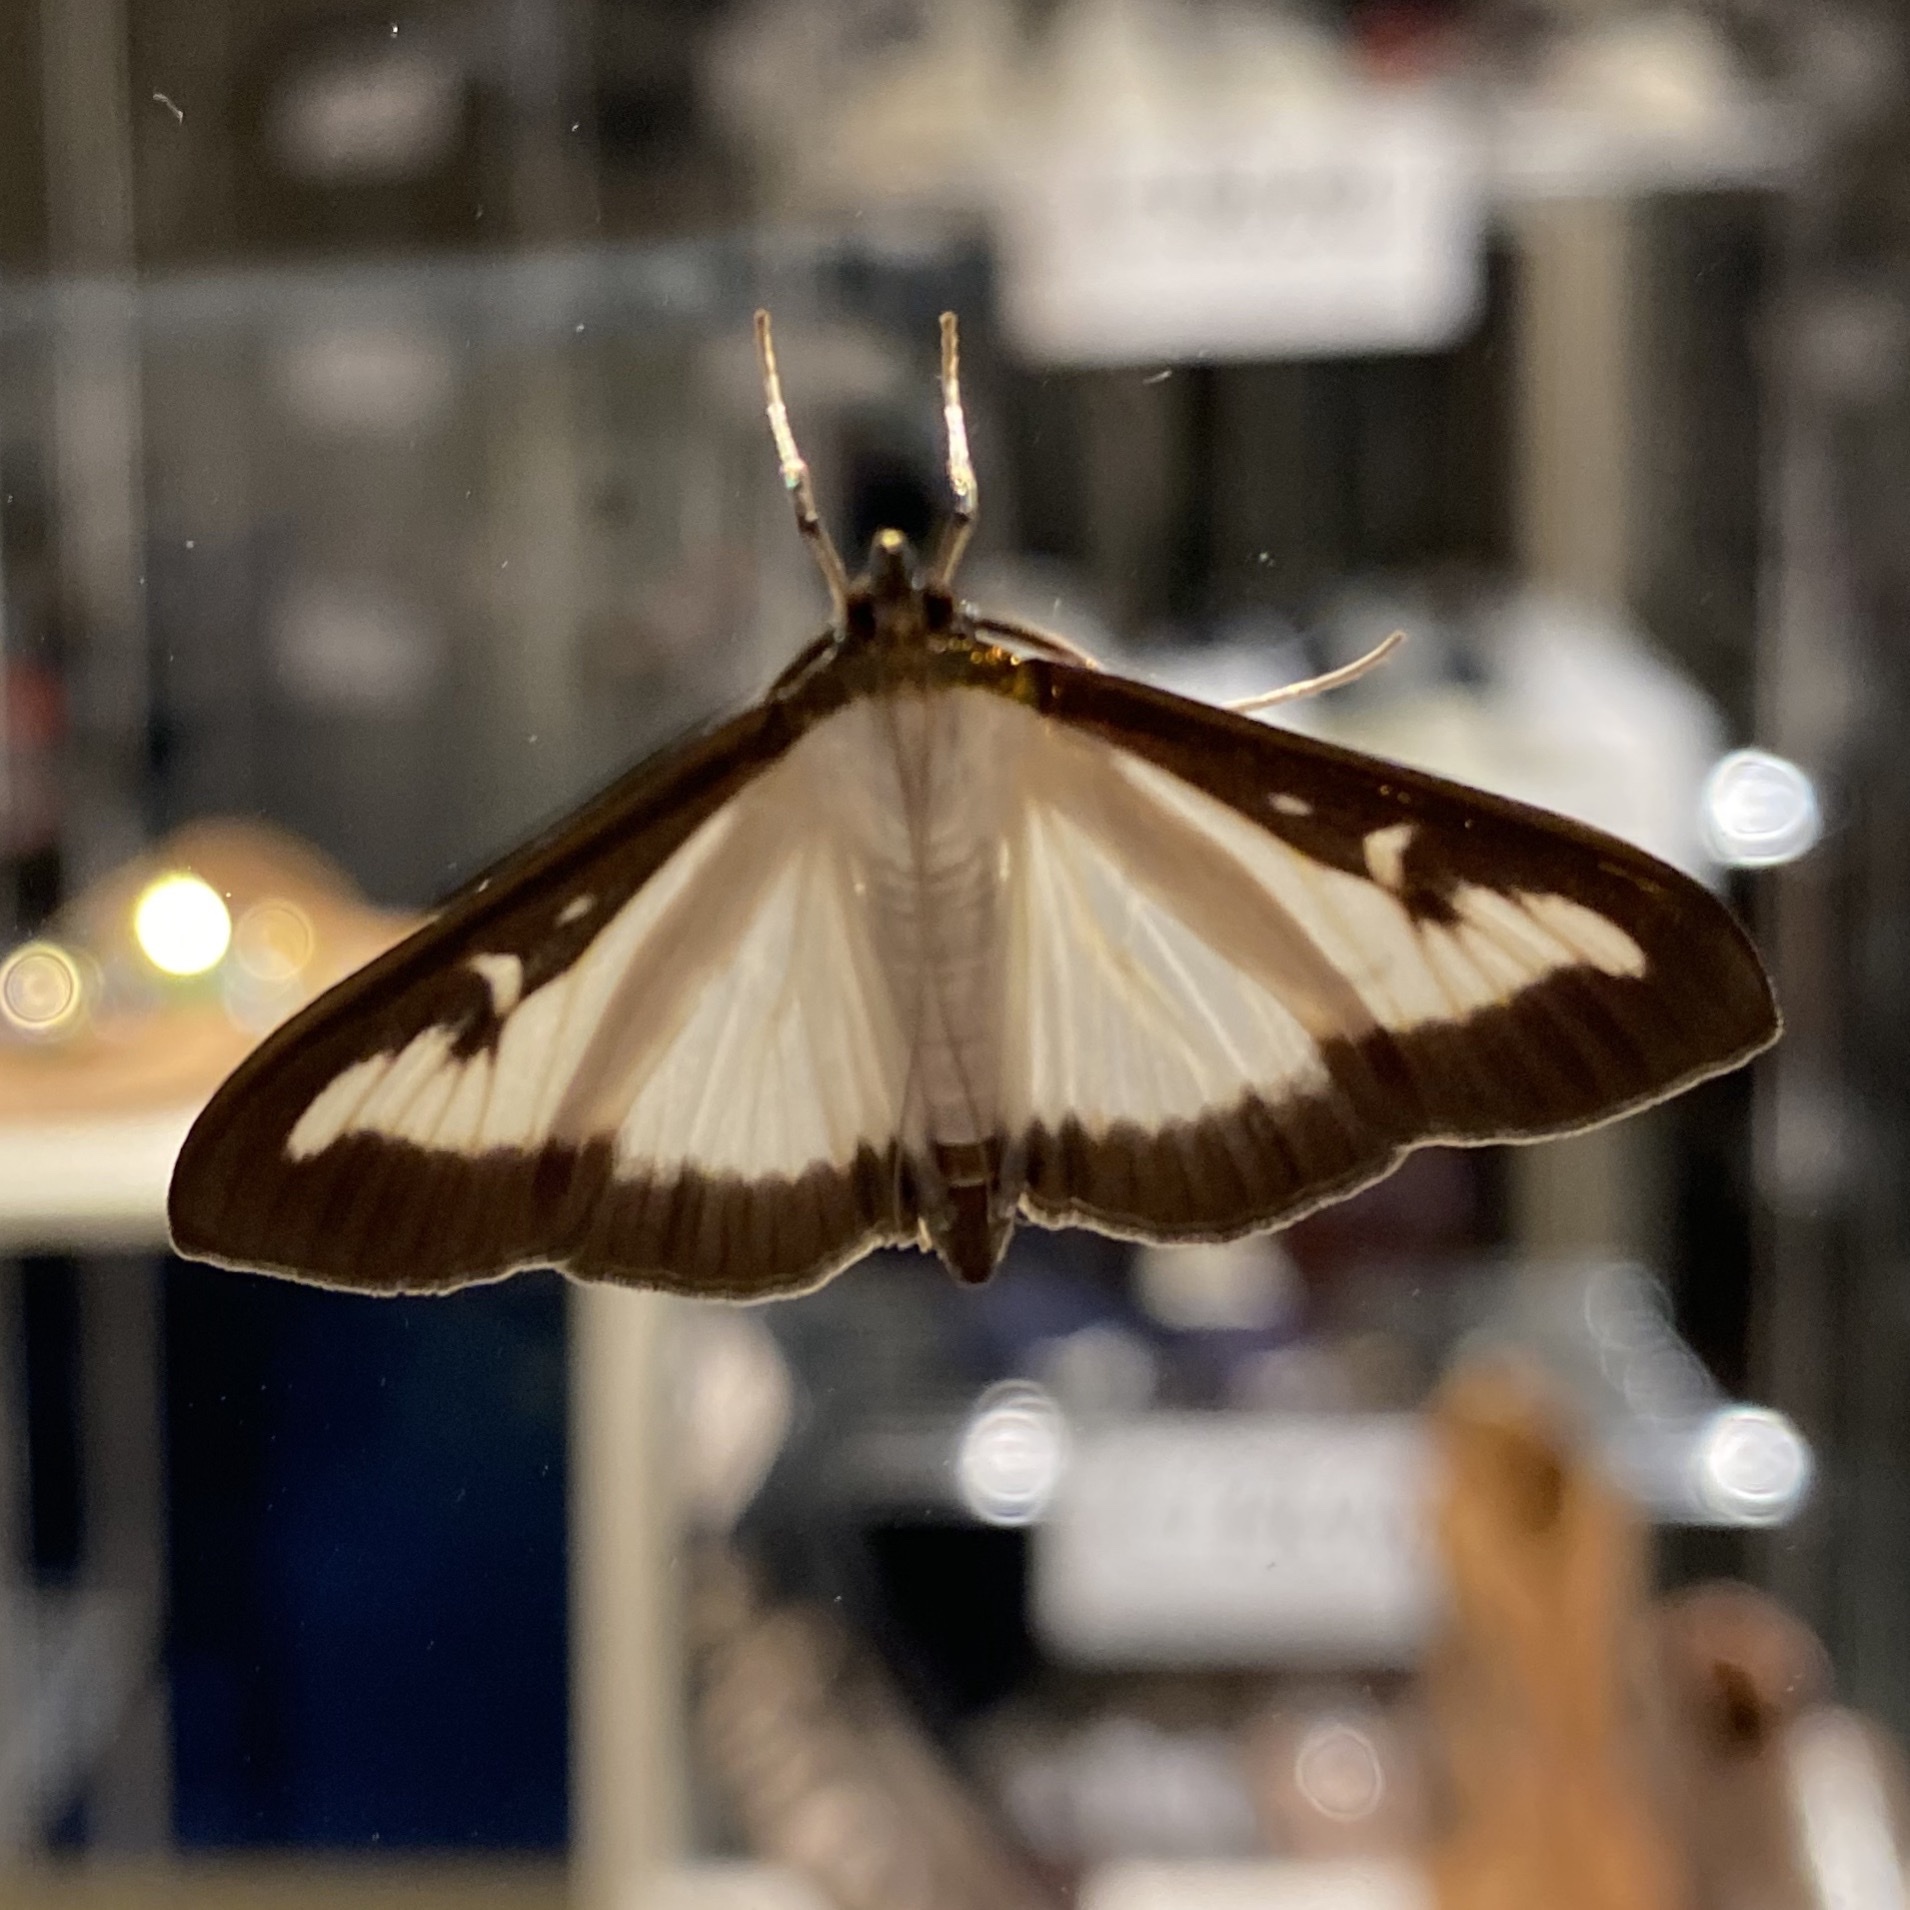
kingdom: Animalia
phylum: Arthropoda
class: Insecta
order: Lepidoptera
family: Crambidae
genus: Cydalima
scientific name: Cydalima perspectalis
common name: Box tree moth
